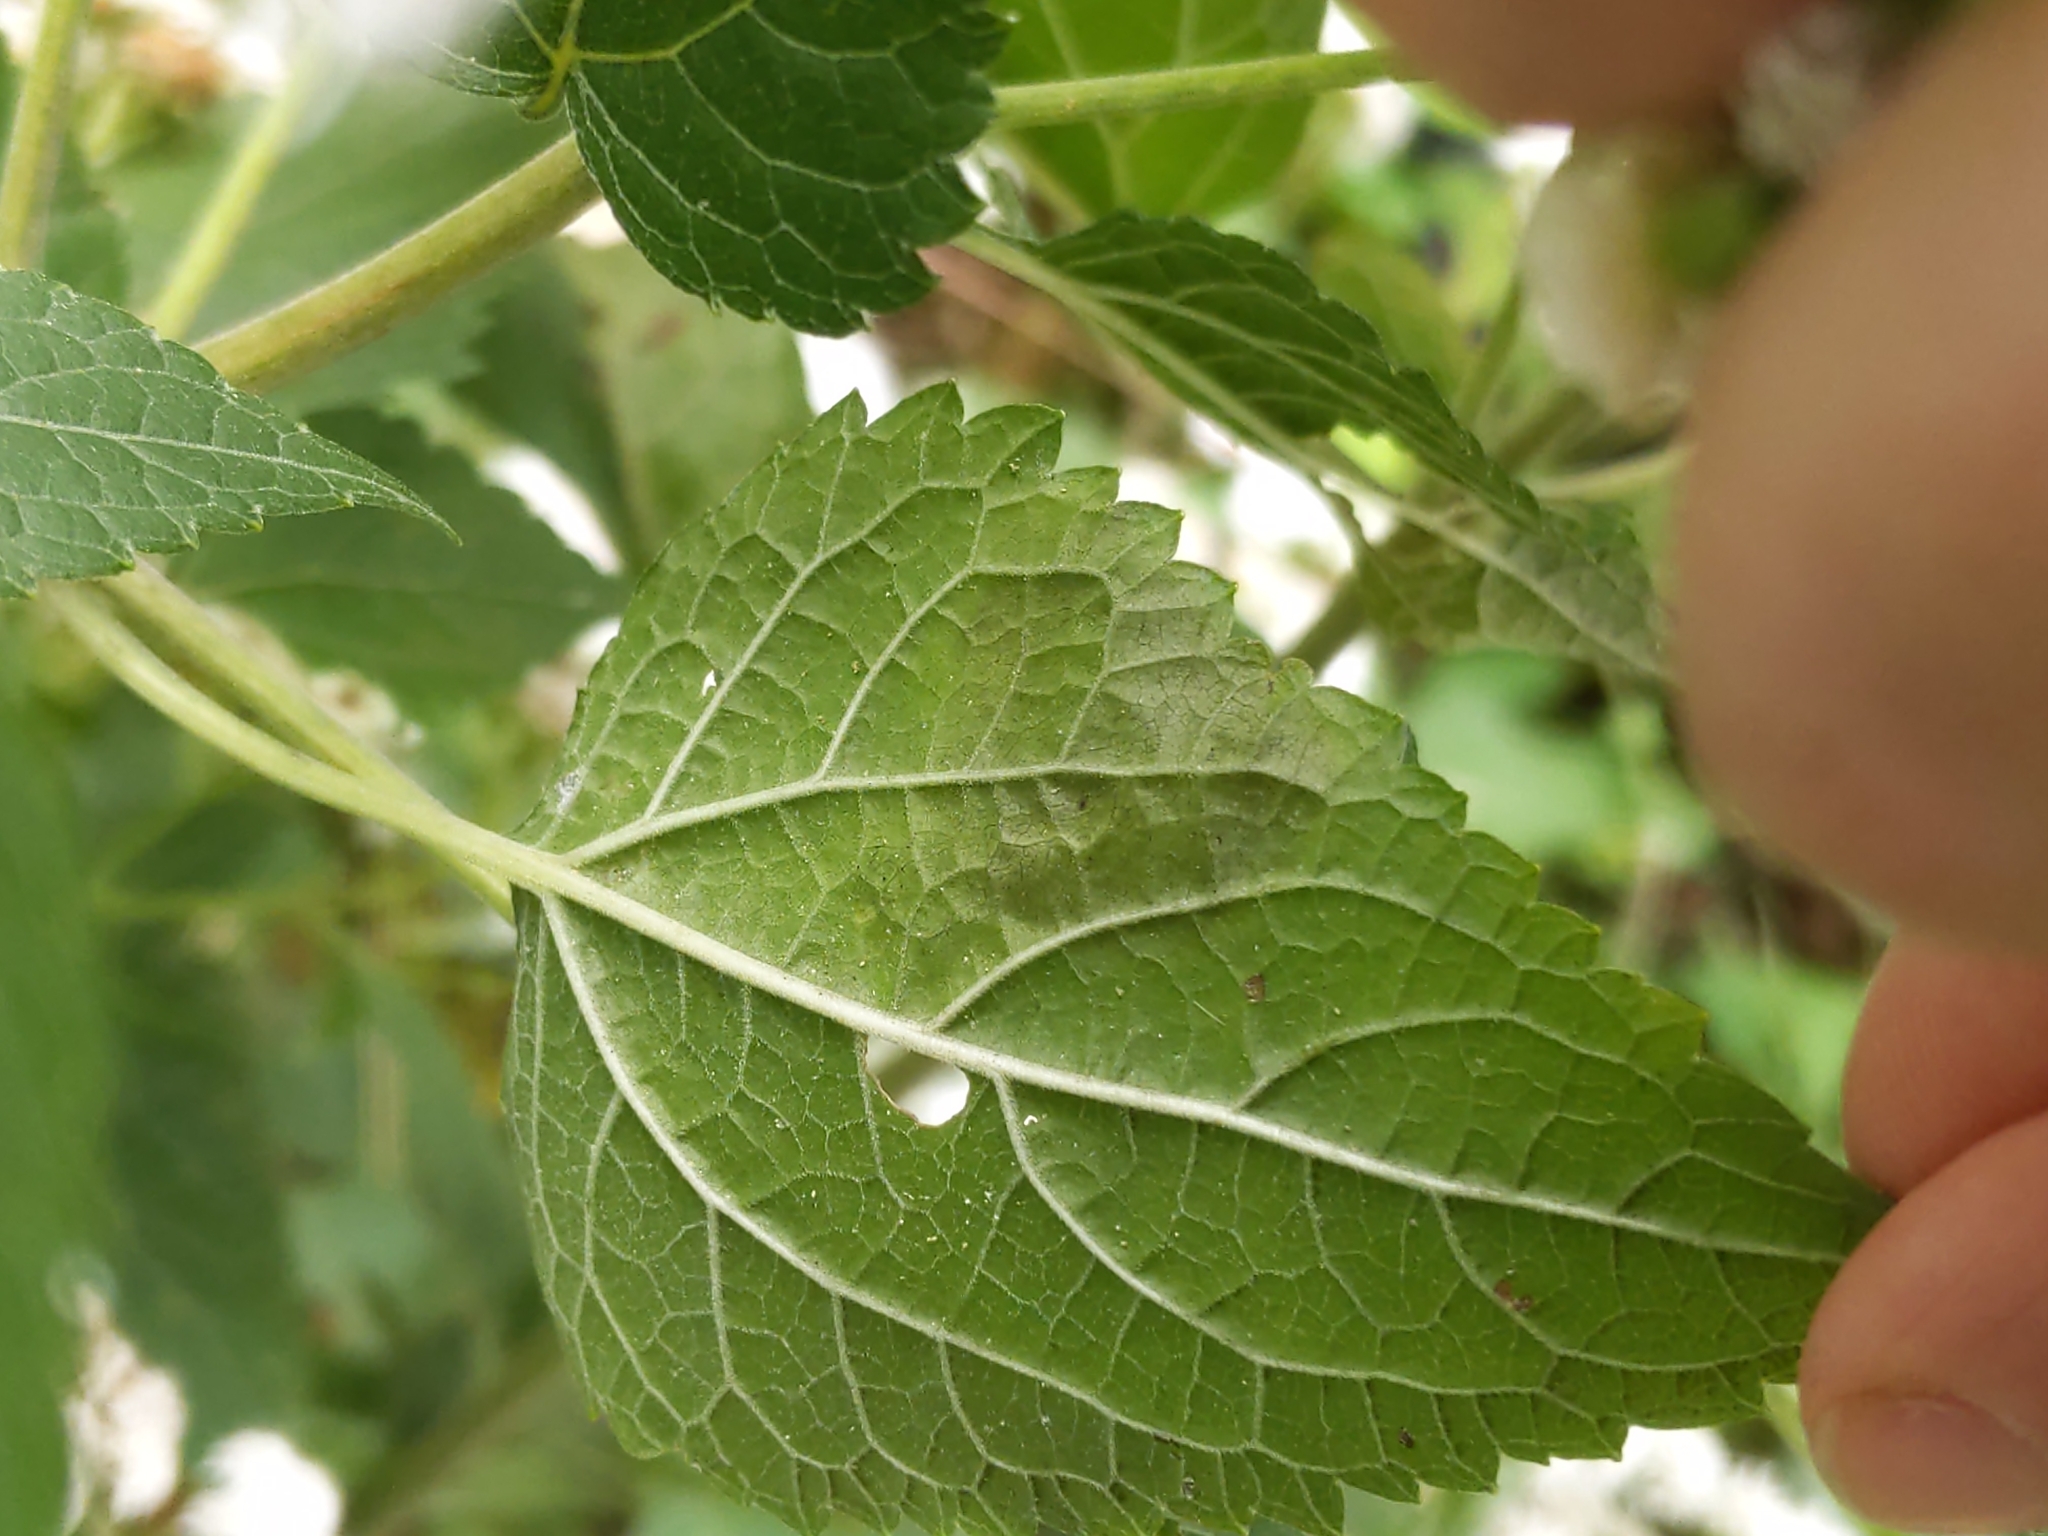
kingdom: Animalia
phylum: Arthropoda
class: Insecta
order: Diptera
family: Agromyzidae
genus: Calycomyza
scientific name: Calycomyza eupatoriphaga
